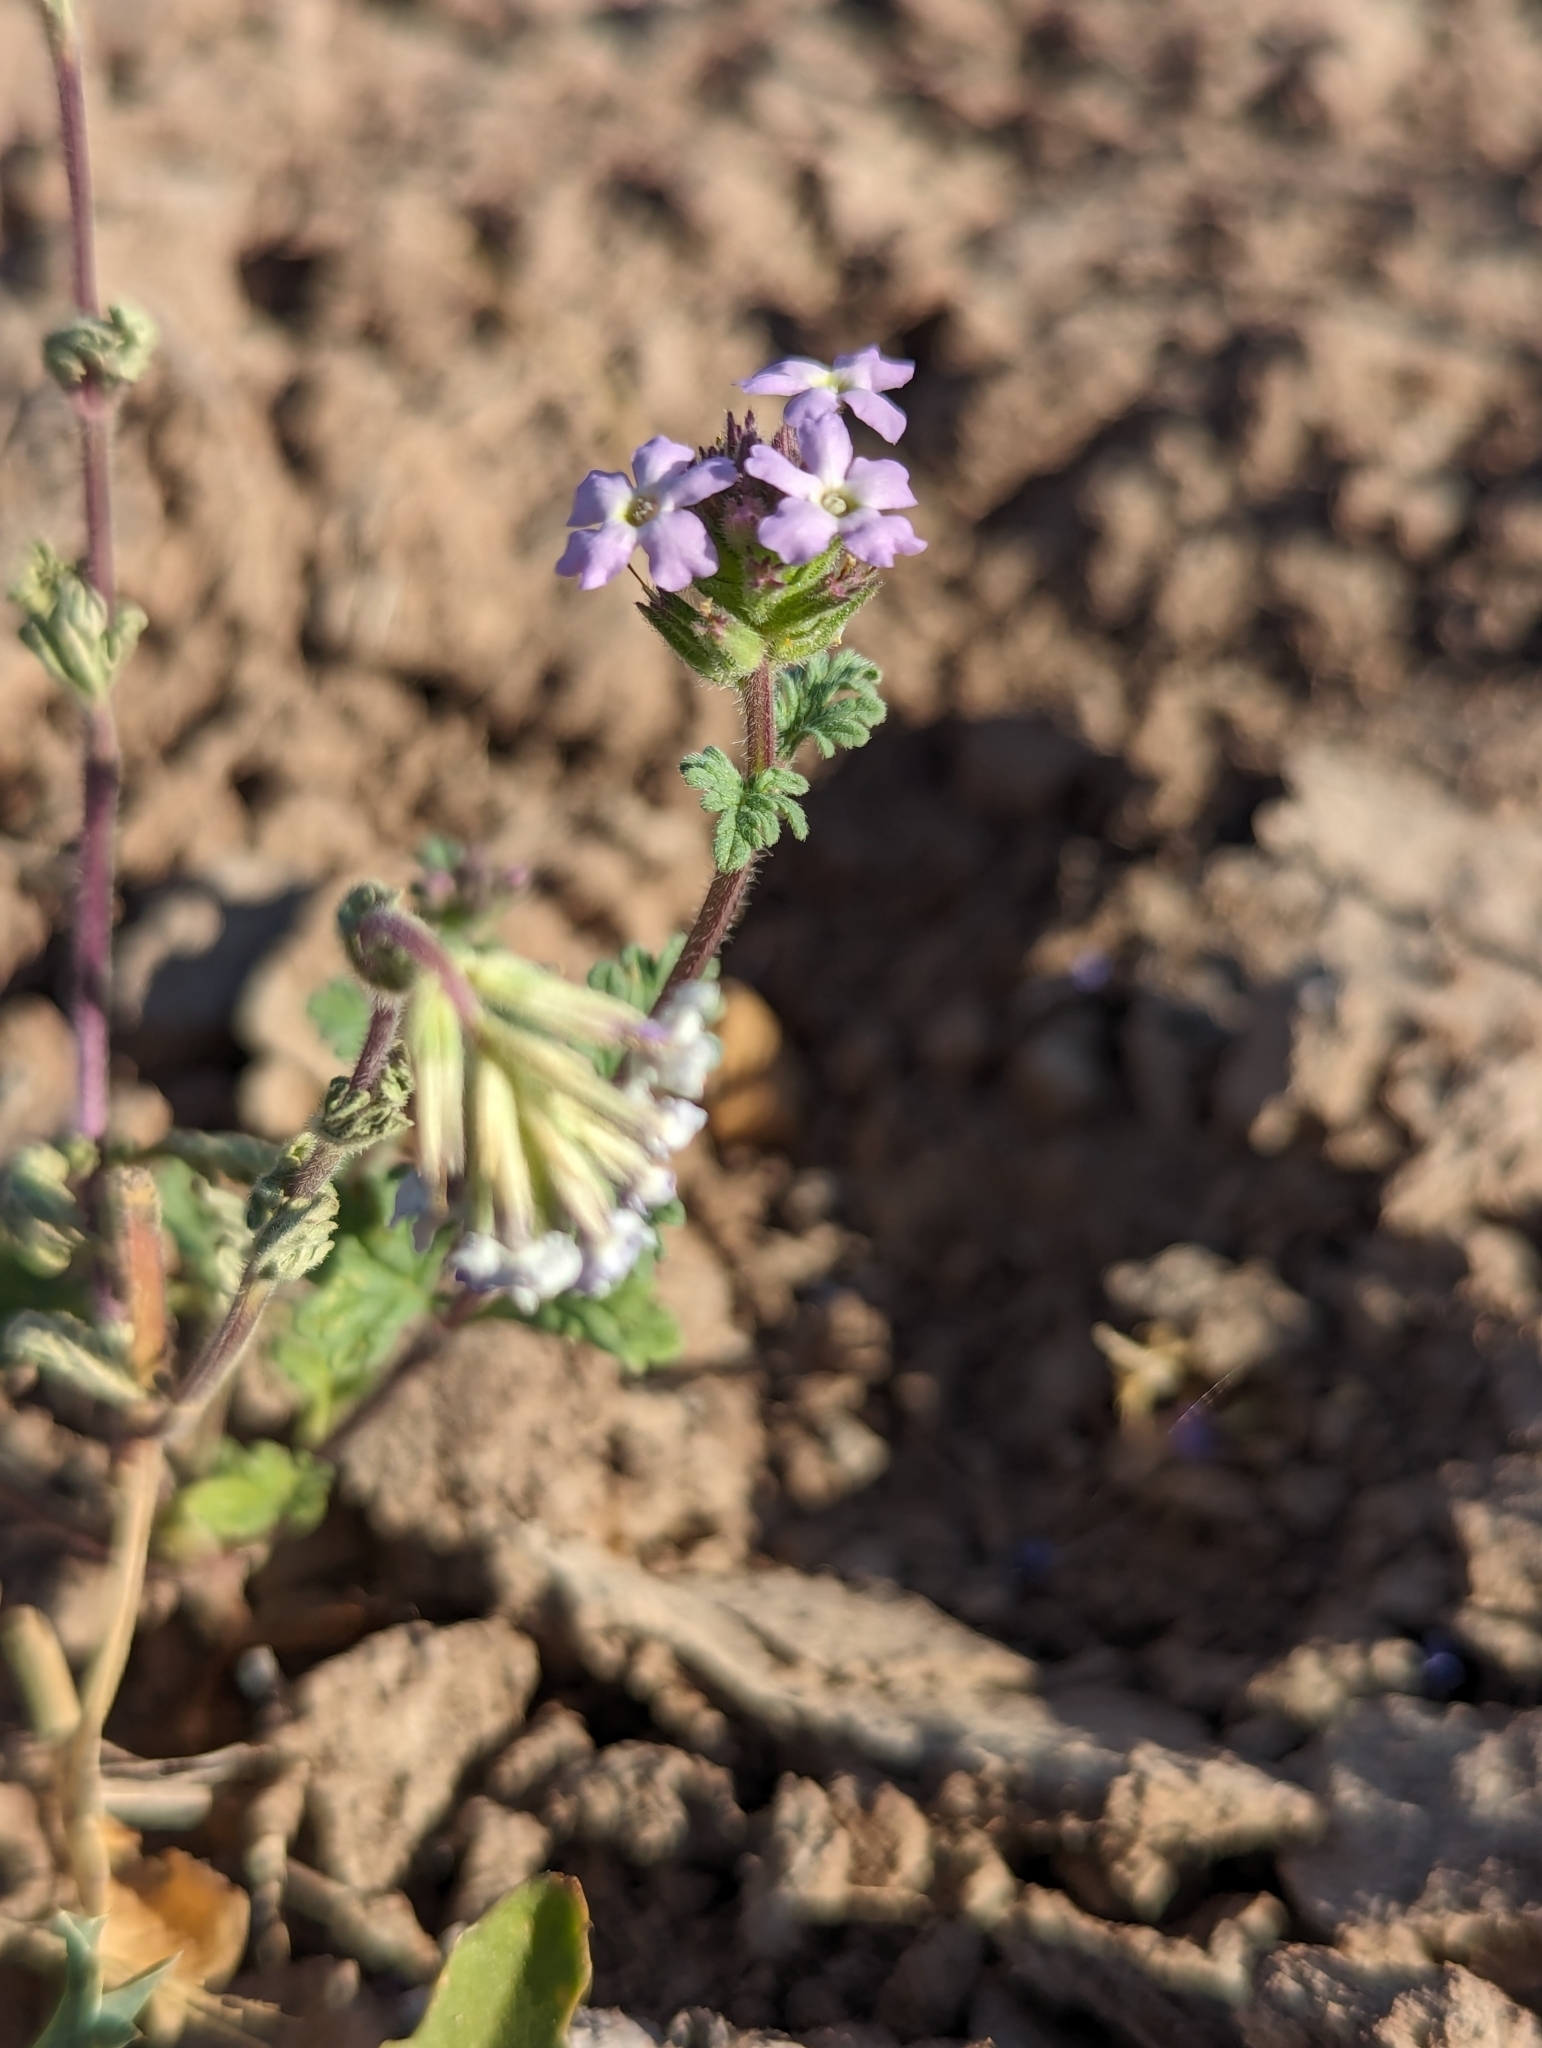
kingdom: Plantae
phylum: Tracheophyta
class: Magnoliopsida
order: Lamiales
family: Verbenaceae
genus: Verbena
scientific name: Verbena bajacalifornica
